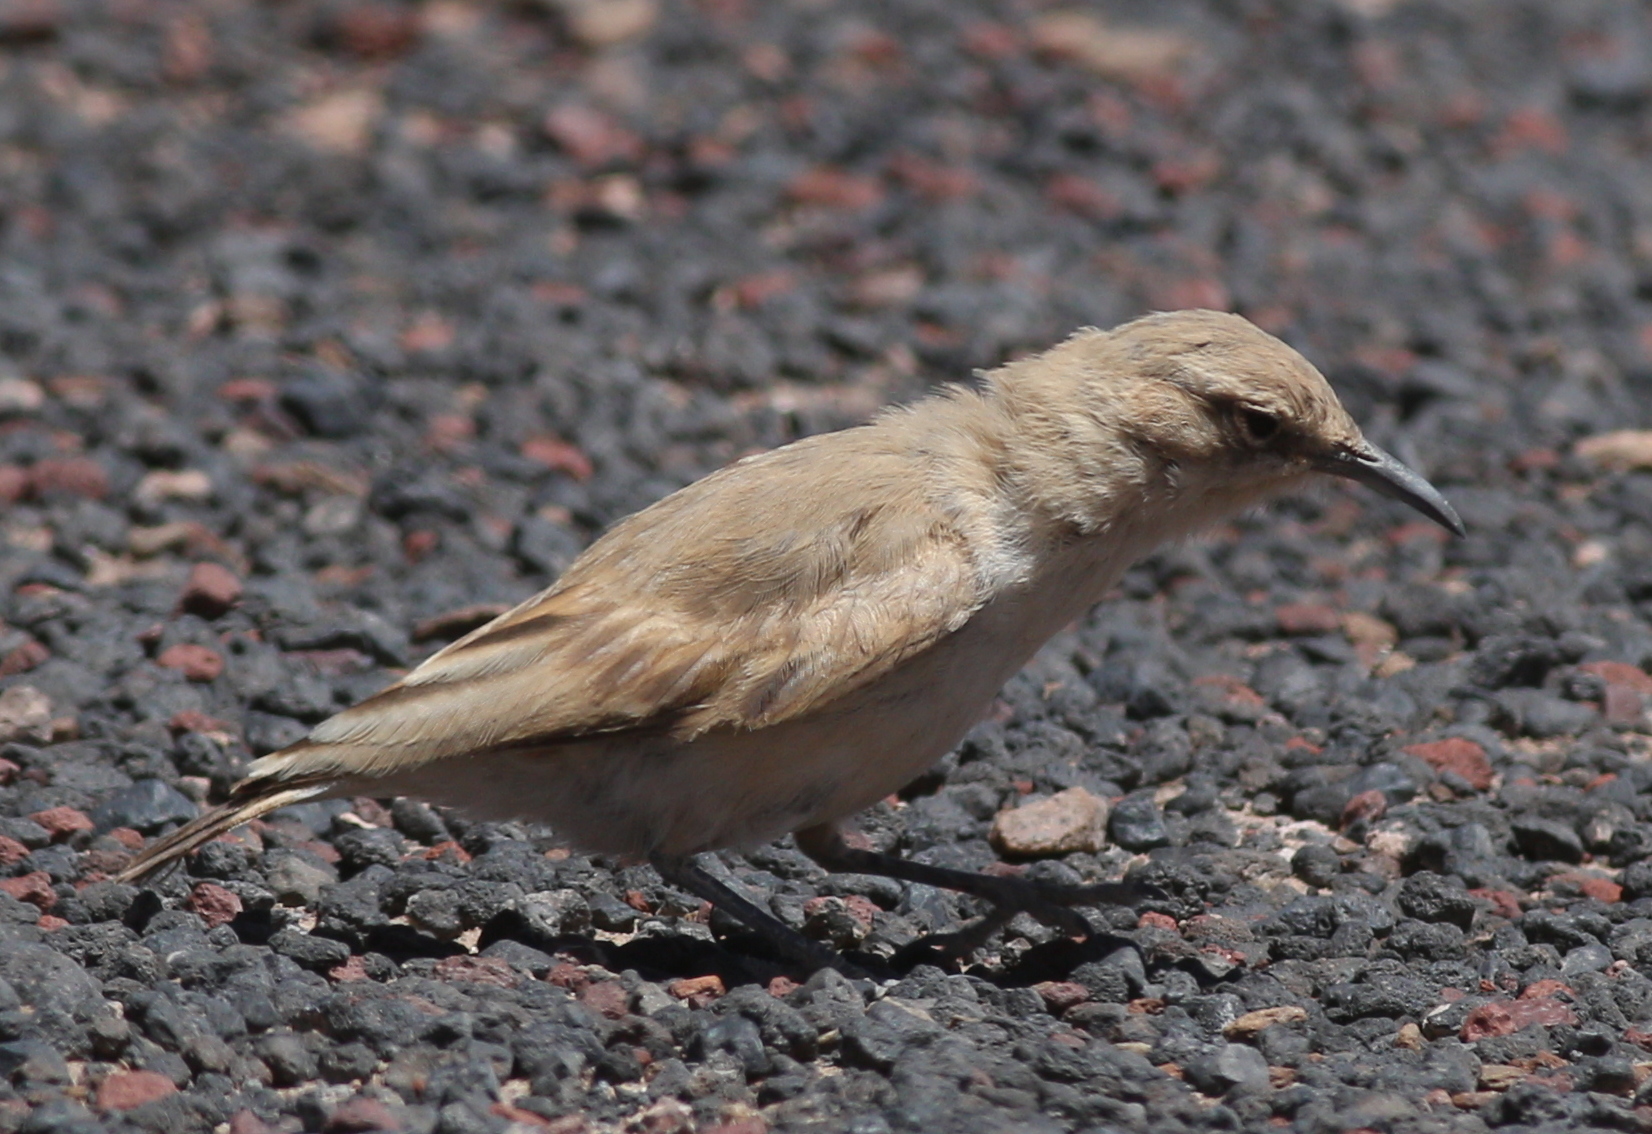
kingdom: Animalia
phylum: Chordata
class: Aves
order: Passeriformes
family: Furnariidae
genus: Geositta
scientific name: Geositta punensis
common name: Puna miner
